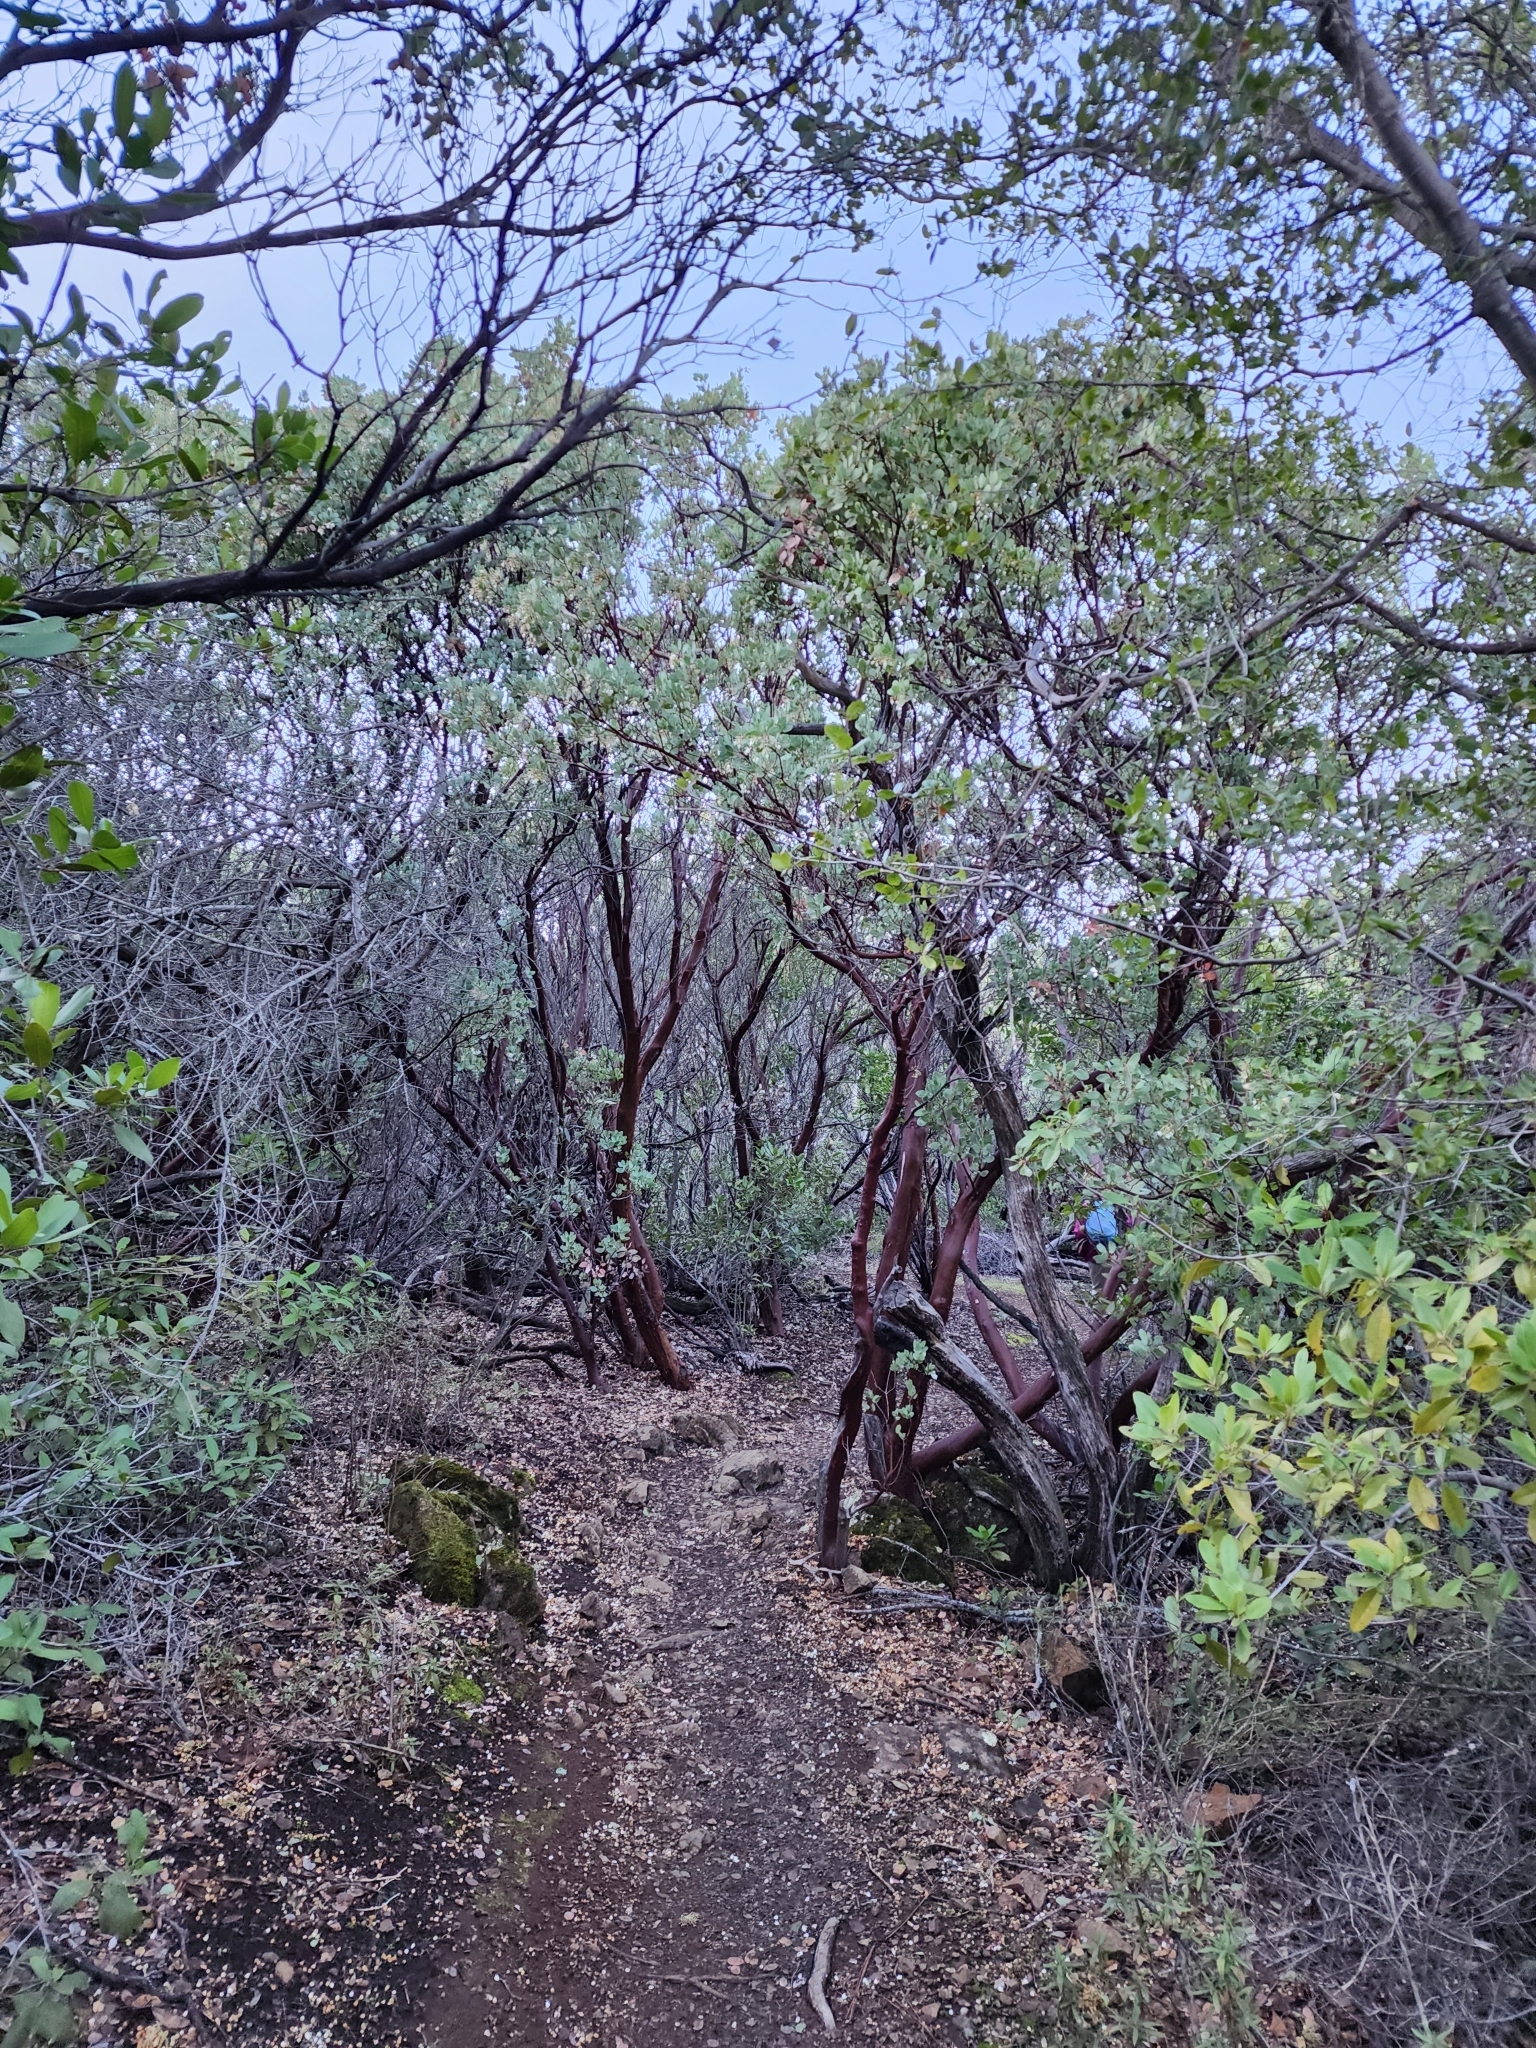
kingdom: Plantae
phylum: Tracheophyta
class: Magnoliopsida
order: Ericales
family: Ericaceae
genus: Arctostaphylos
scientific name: Arctostaphylos glauca
